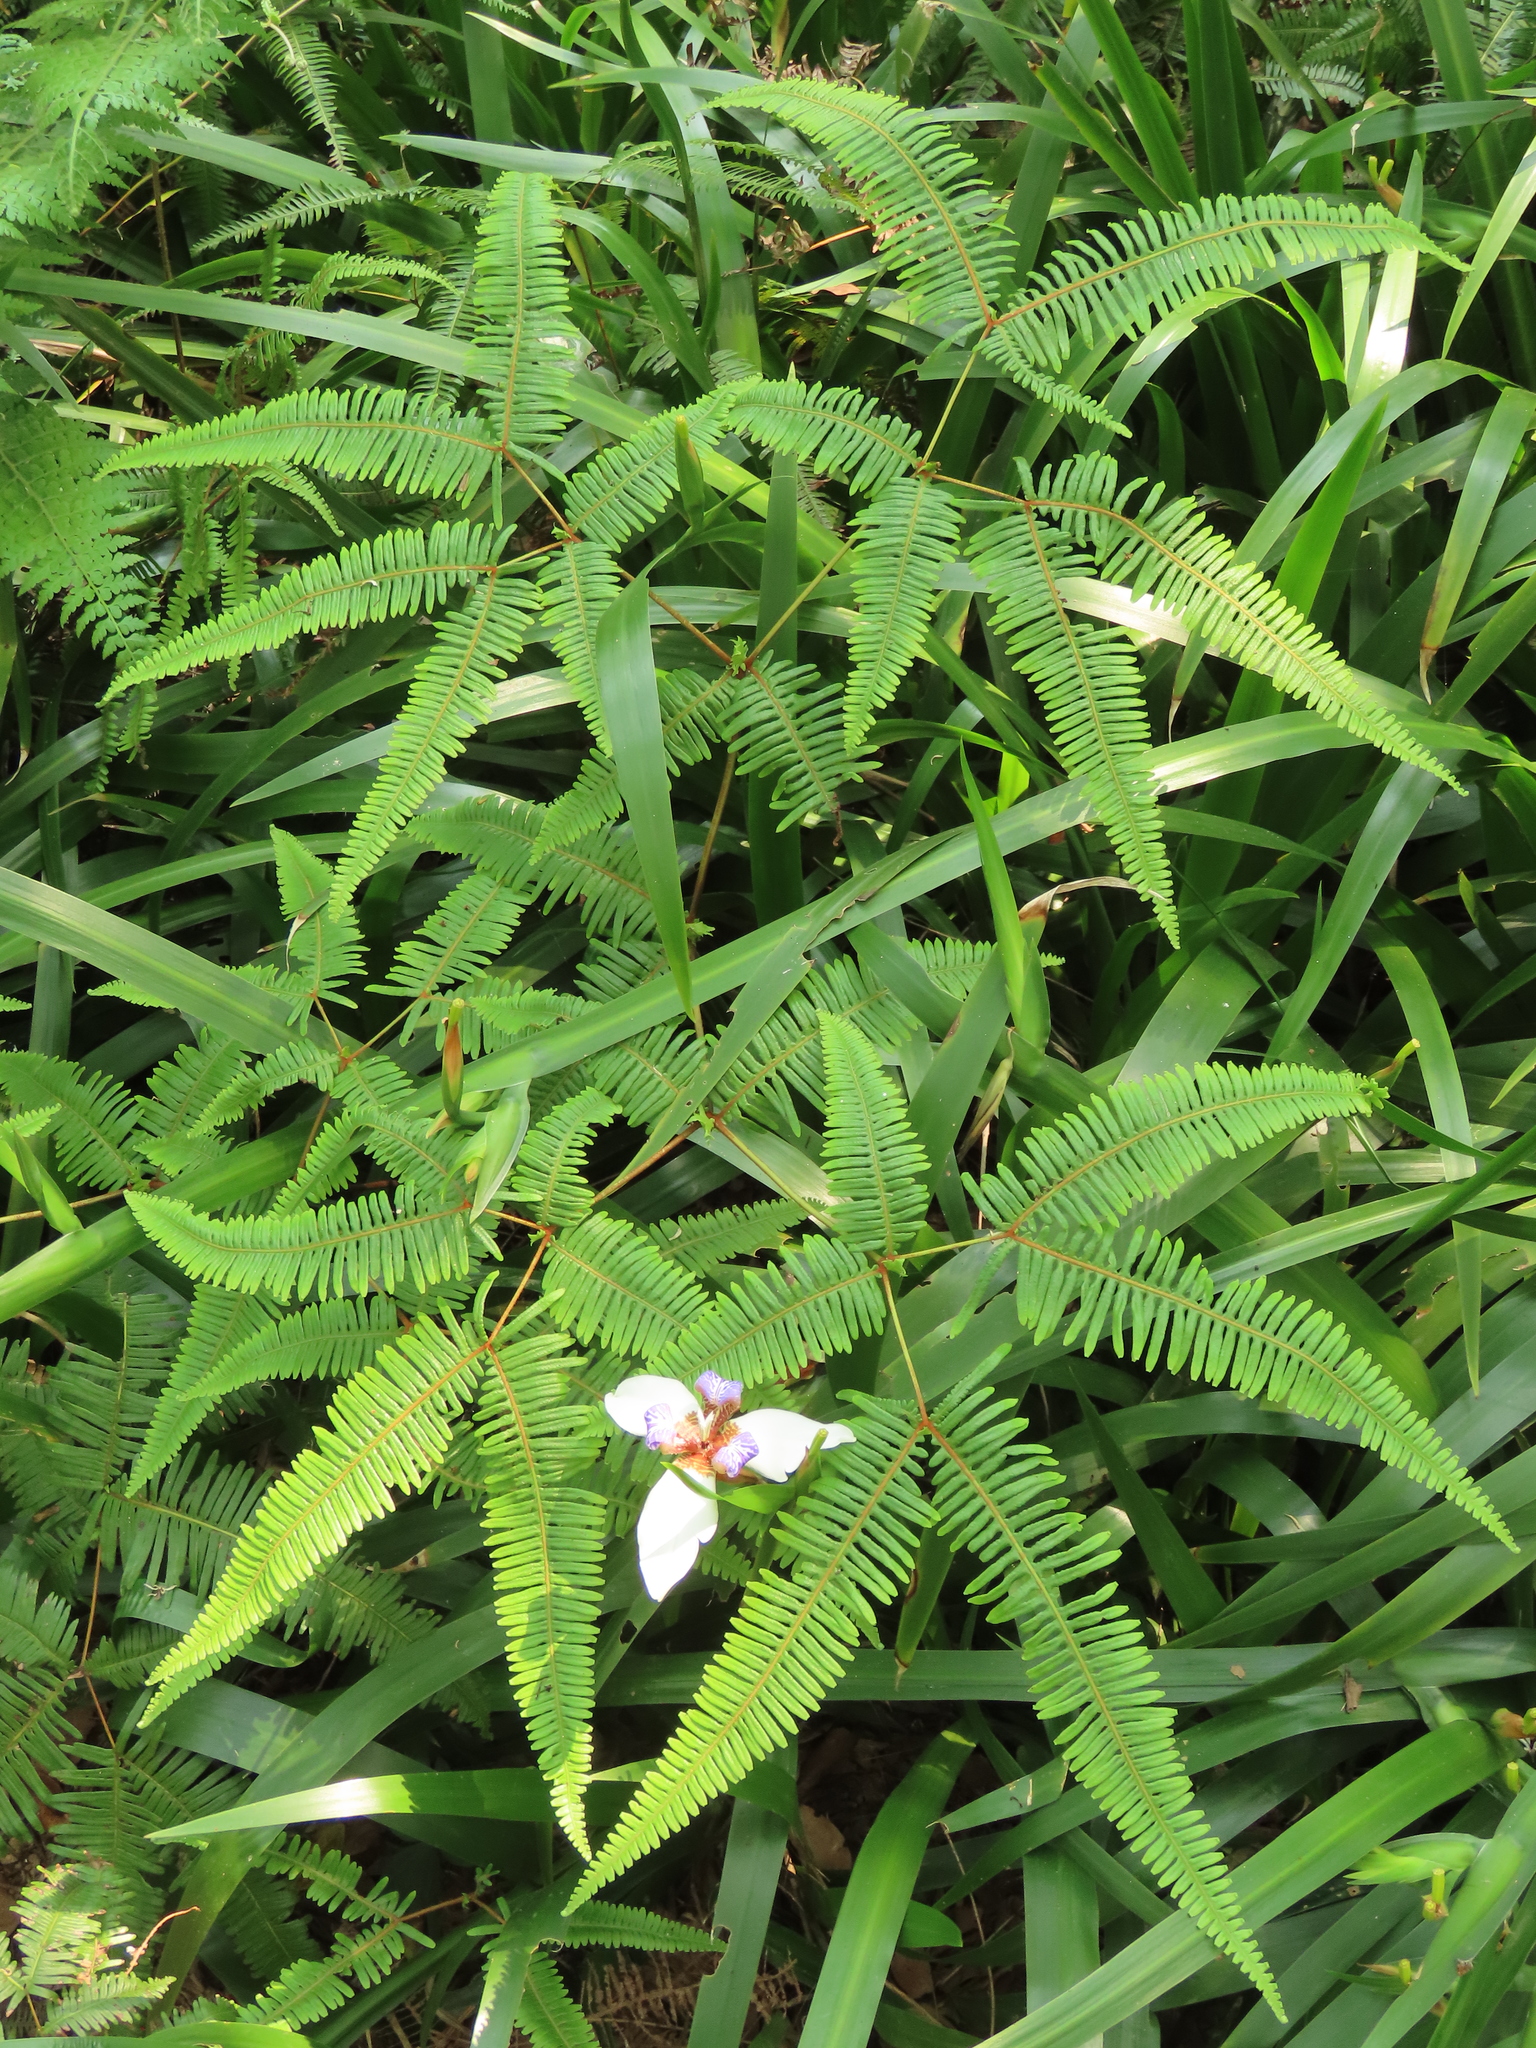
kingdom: Plantae
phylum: Tracheophyta
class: Polypodiopsida
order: Gleicheniales
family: Gleicheniaceae
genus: Dicranopteris
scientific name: Dicranopteris linearis
